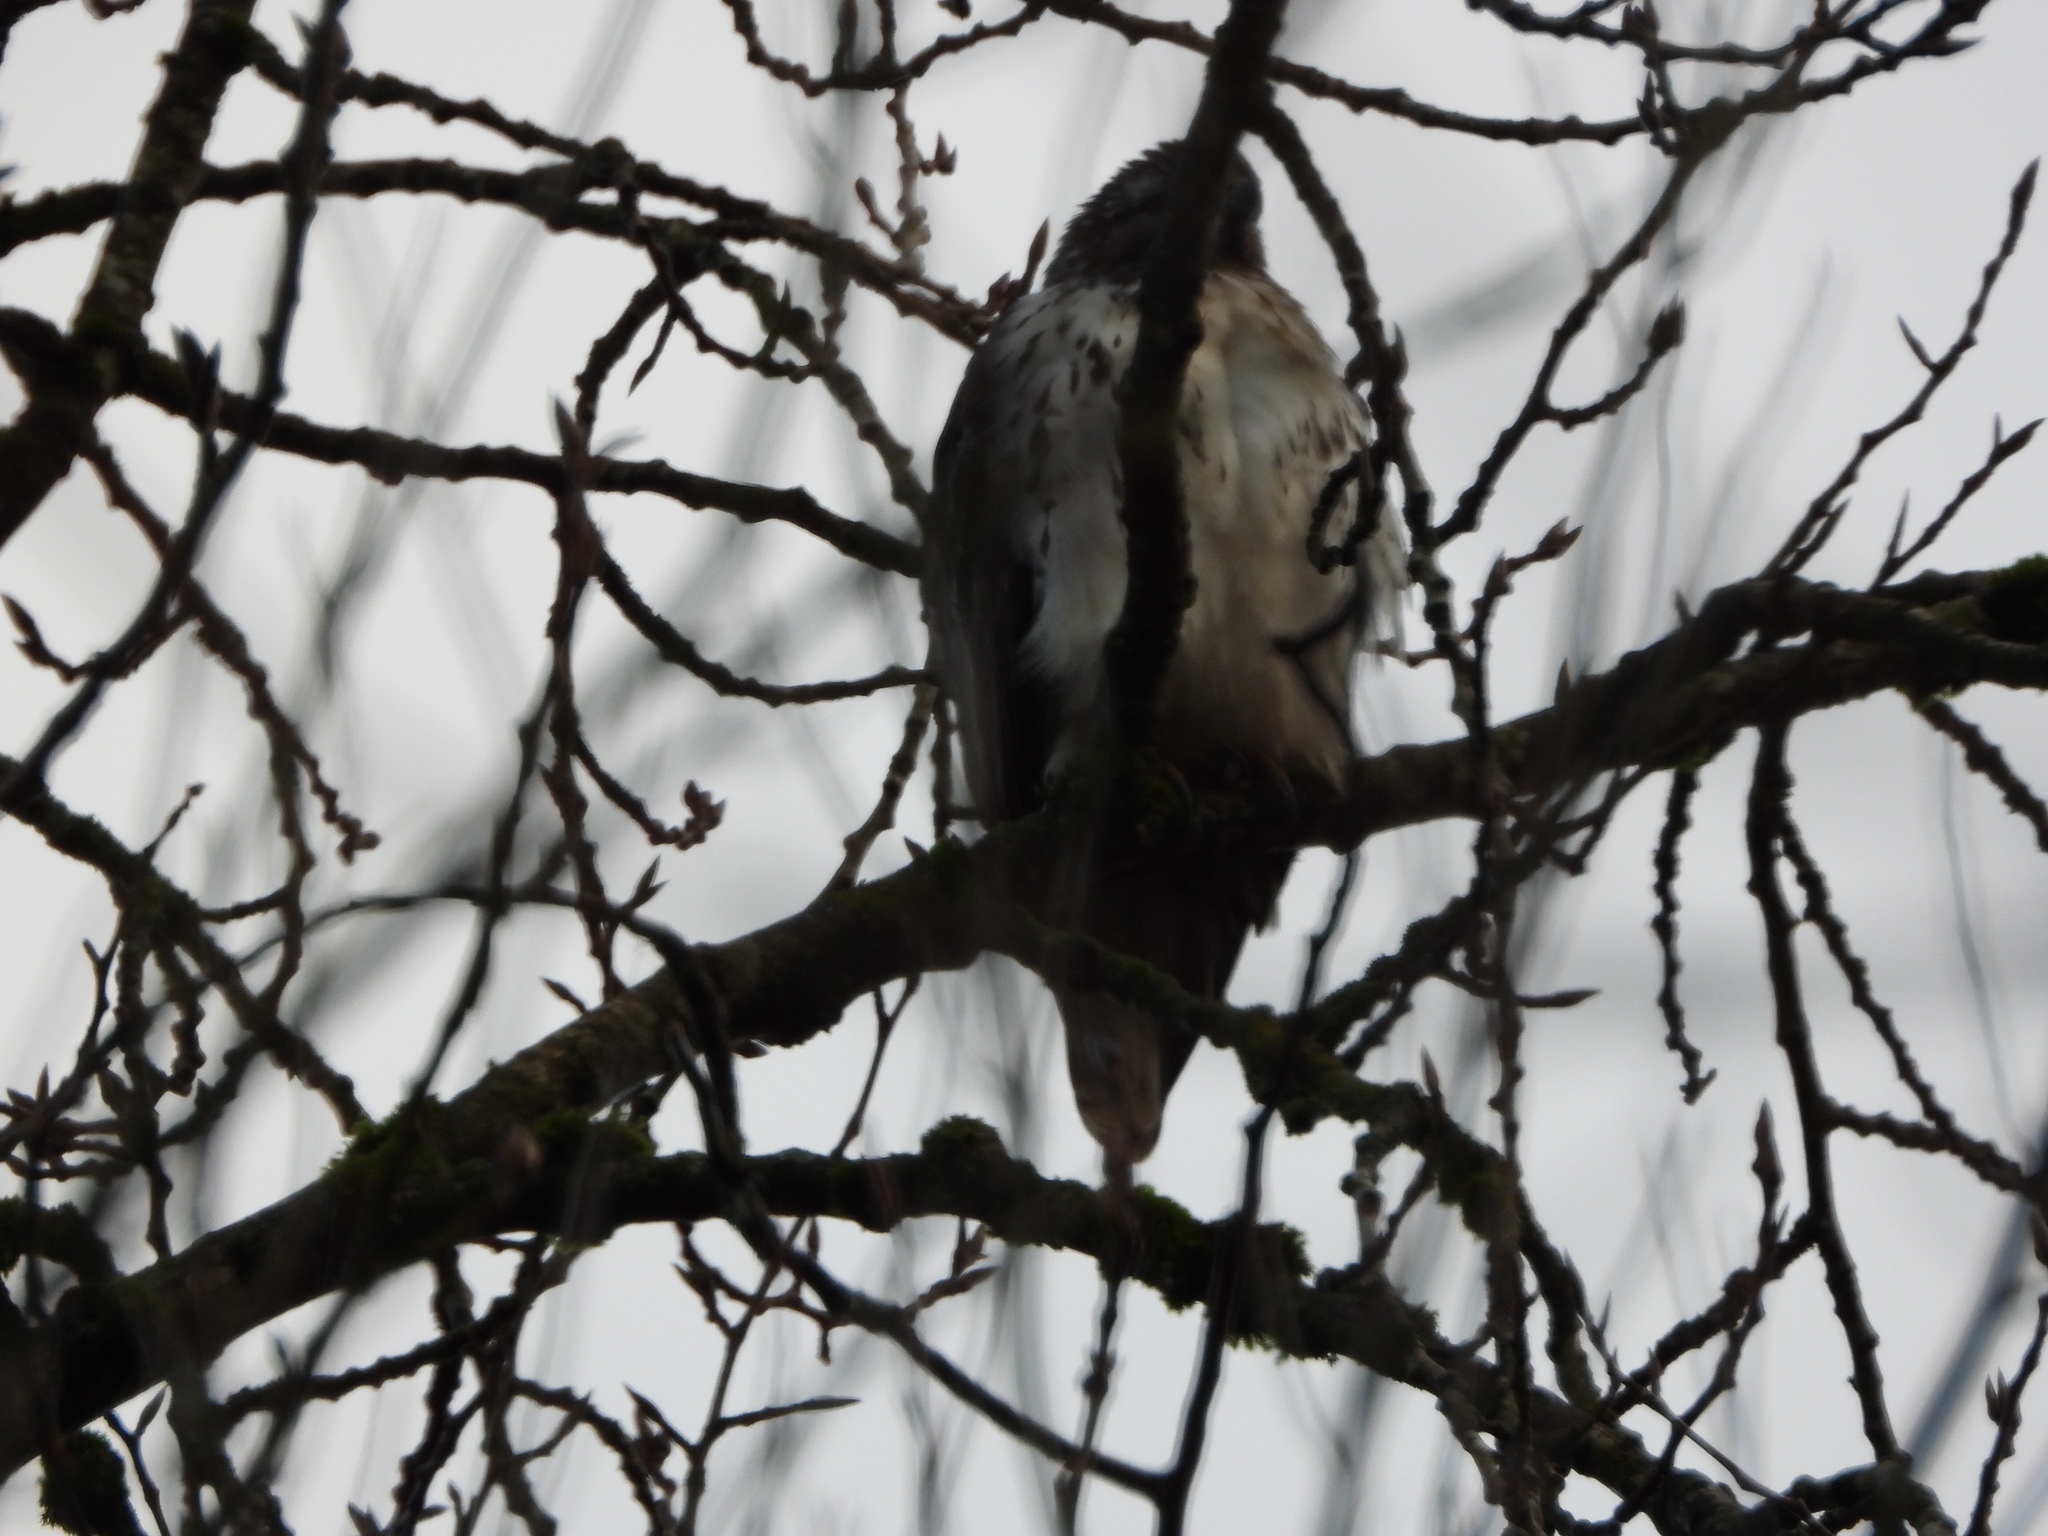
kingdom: Animalia
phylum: Chordata
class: Aves
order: Accipitriformes
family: Accipitridae
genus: Buteo
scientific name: Buteo jamaicensis
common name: Red-tailed hawk
